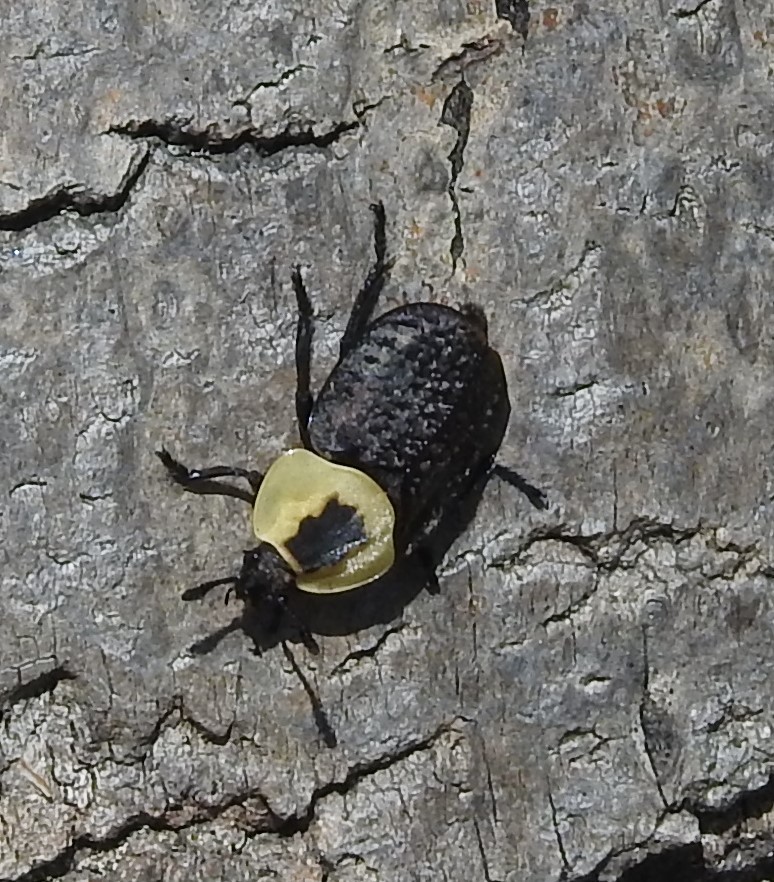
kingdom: Animalia
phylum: Arthropoda
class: Insecta
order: Coleoptera
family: Staphylinidae
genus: Necrophila
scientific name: Necrophila americana
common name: American carrion beetle
